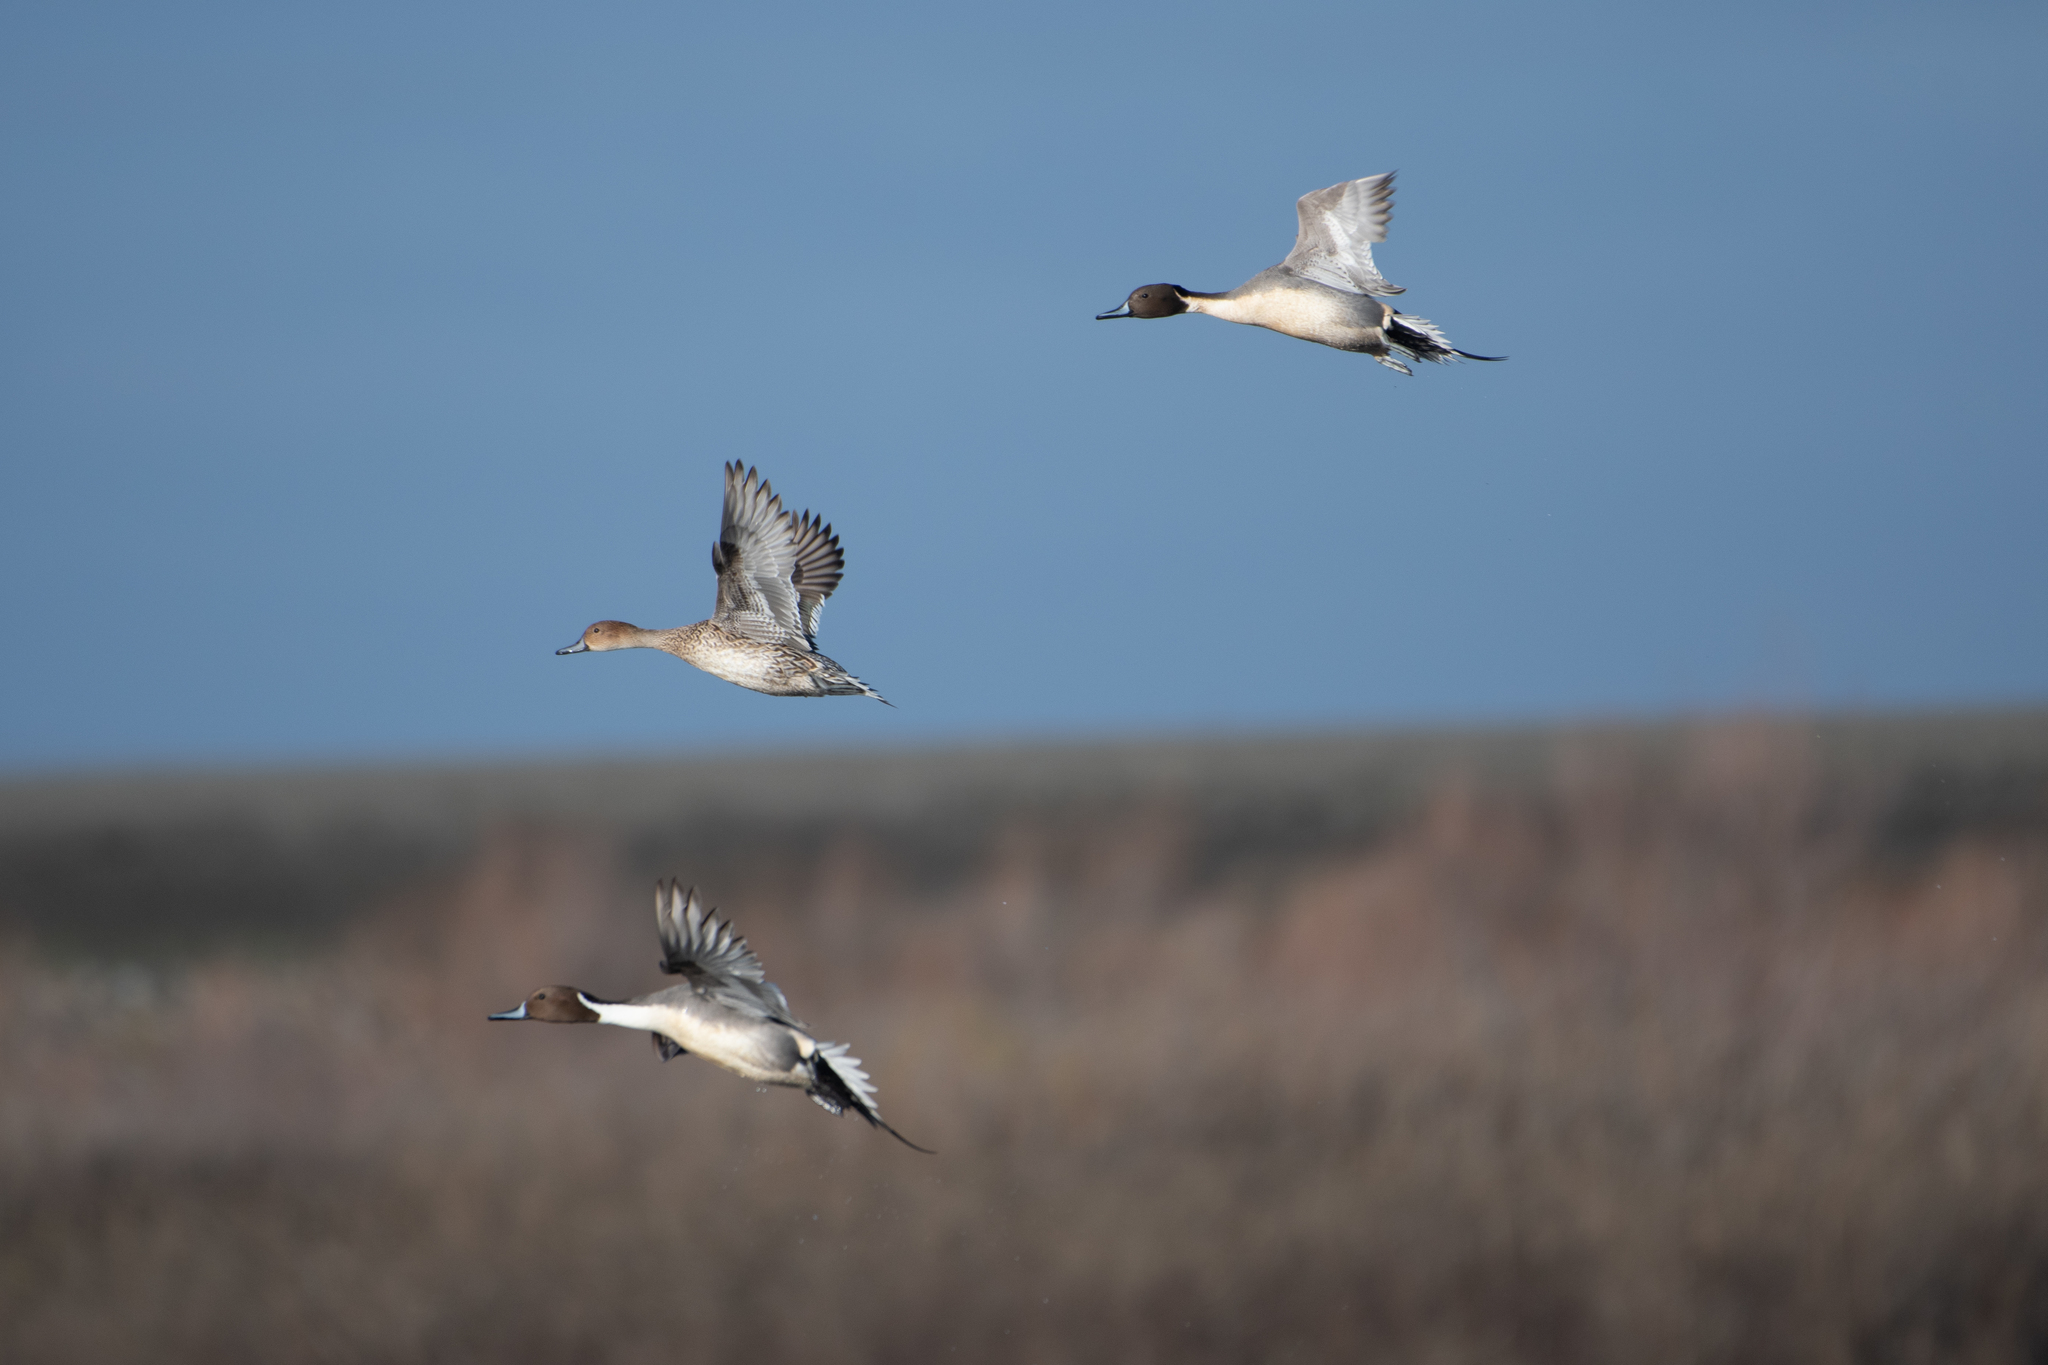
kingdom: Animalia
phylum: Chordata
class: Aves
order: Anseriformes
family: Anatidae
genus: Anas
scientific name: Anas acuta
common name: Northern pintail
